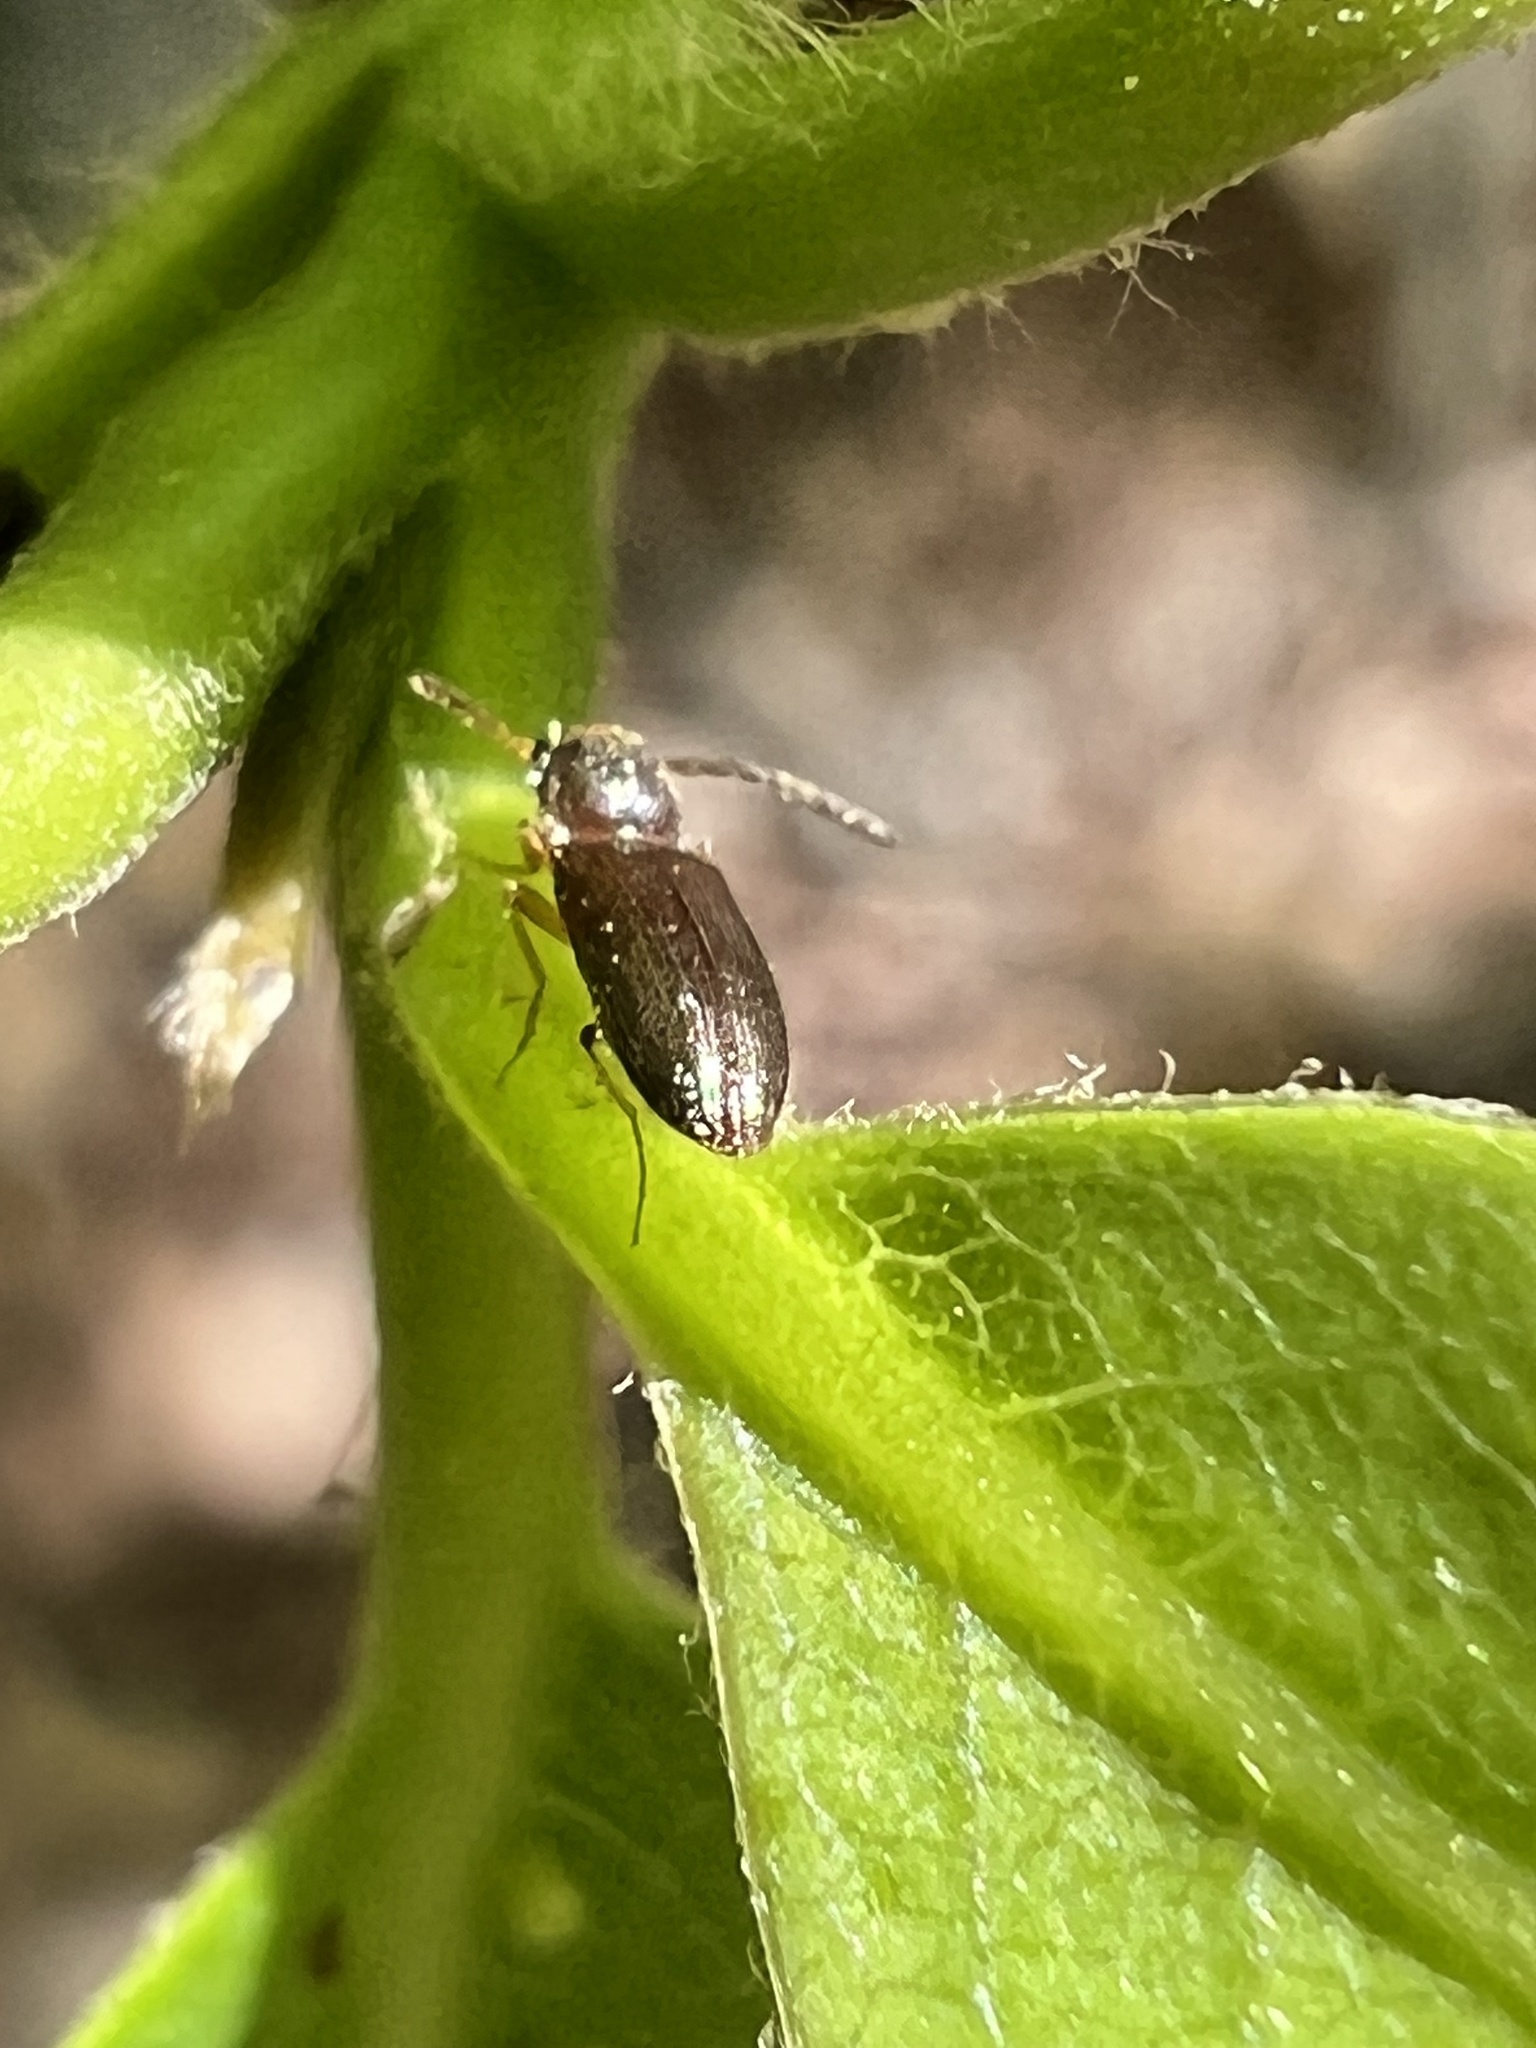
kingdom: Animalia
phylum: Arthropoda
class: Insecta
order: Coleoptera
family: Elateridae
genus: Tetralimonius
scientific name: Tetralimonius
